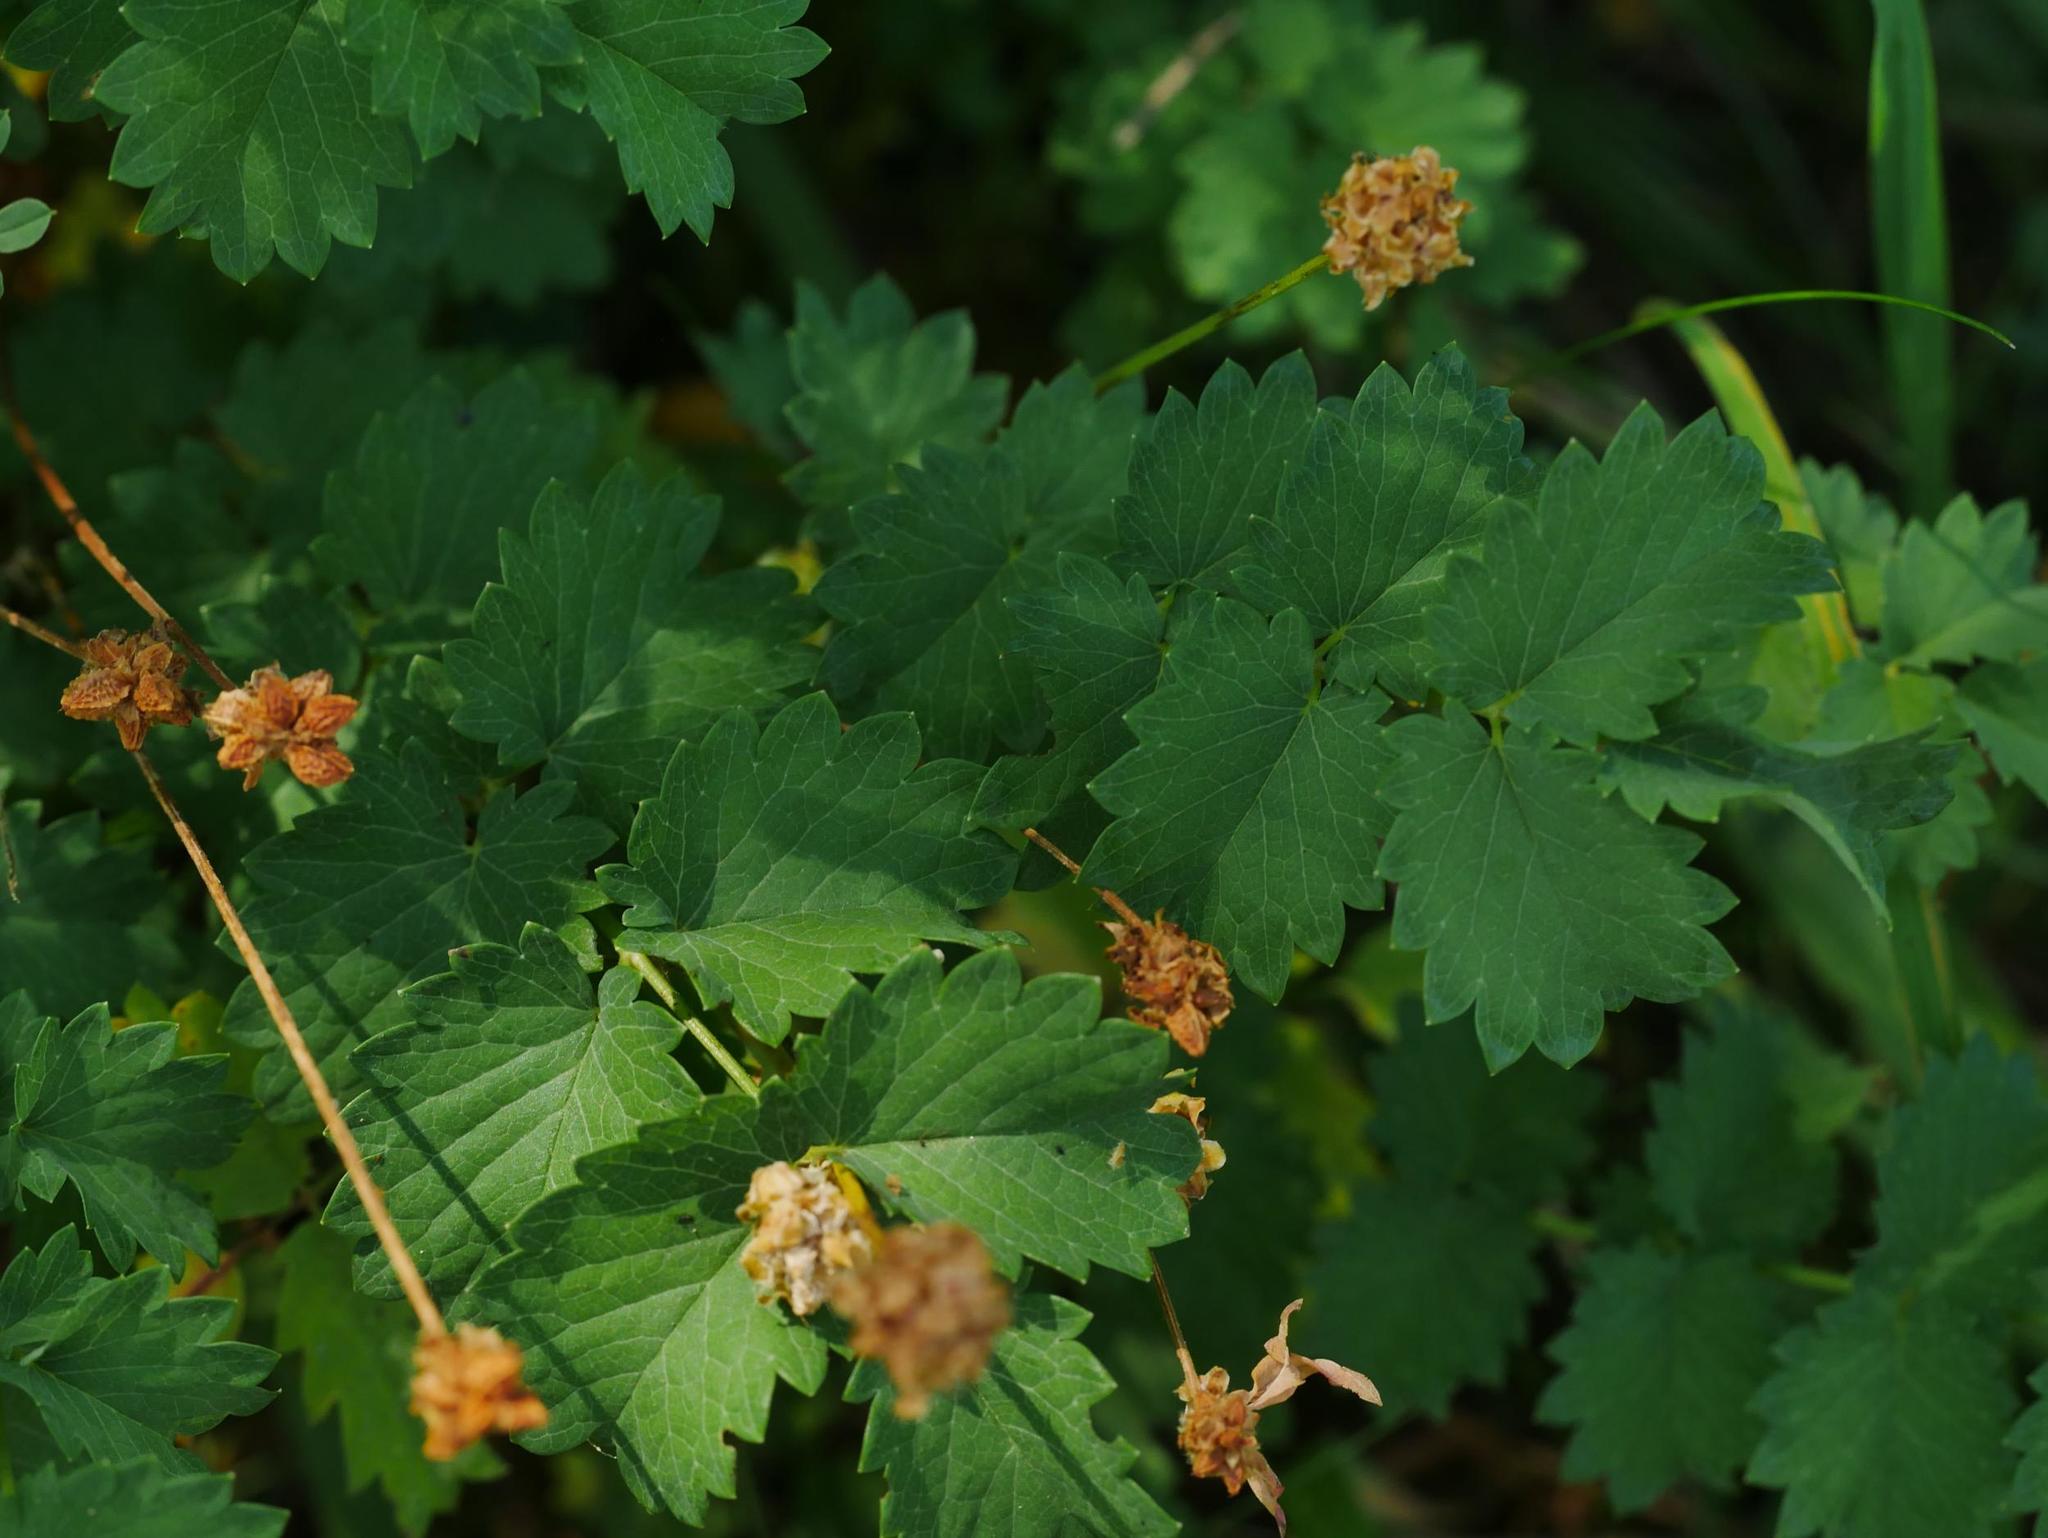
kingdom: Plantae
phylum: Tracheophyta
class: Magnoliopsida
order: Rosales
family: Rosaceae
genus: Poterium
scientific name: Poterium sanguisorba
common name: Salad burnet
